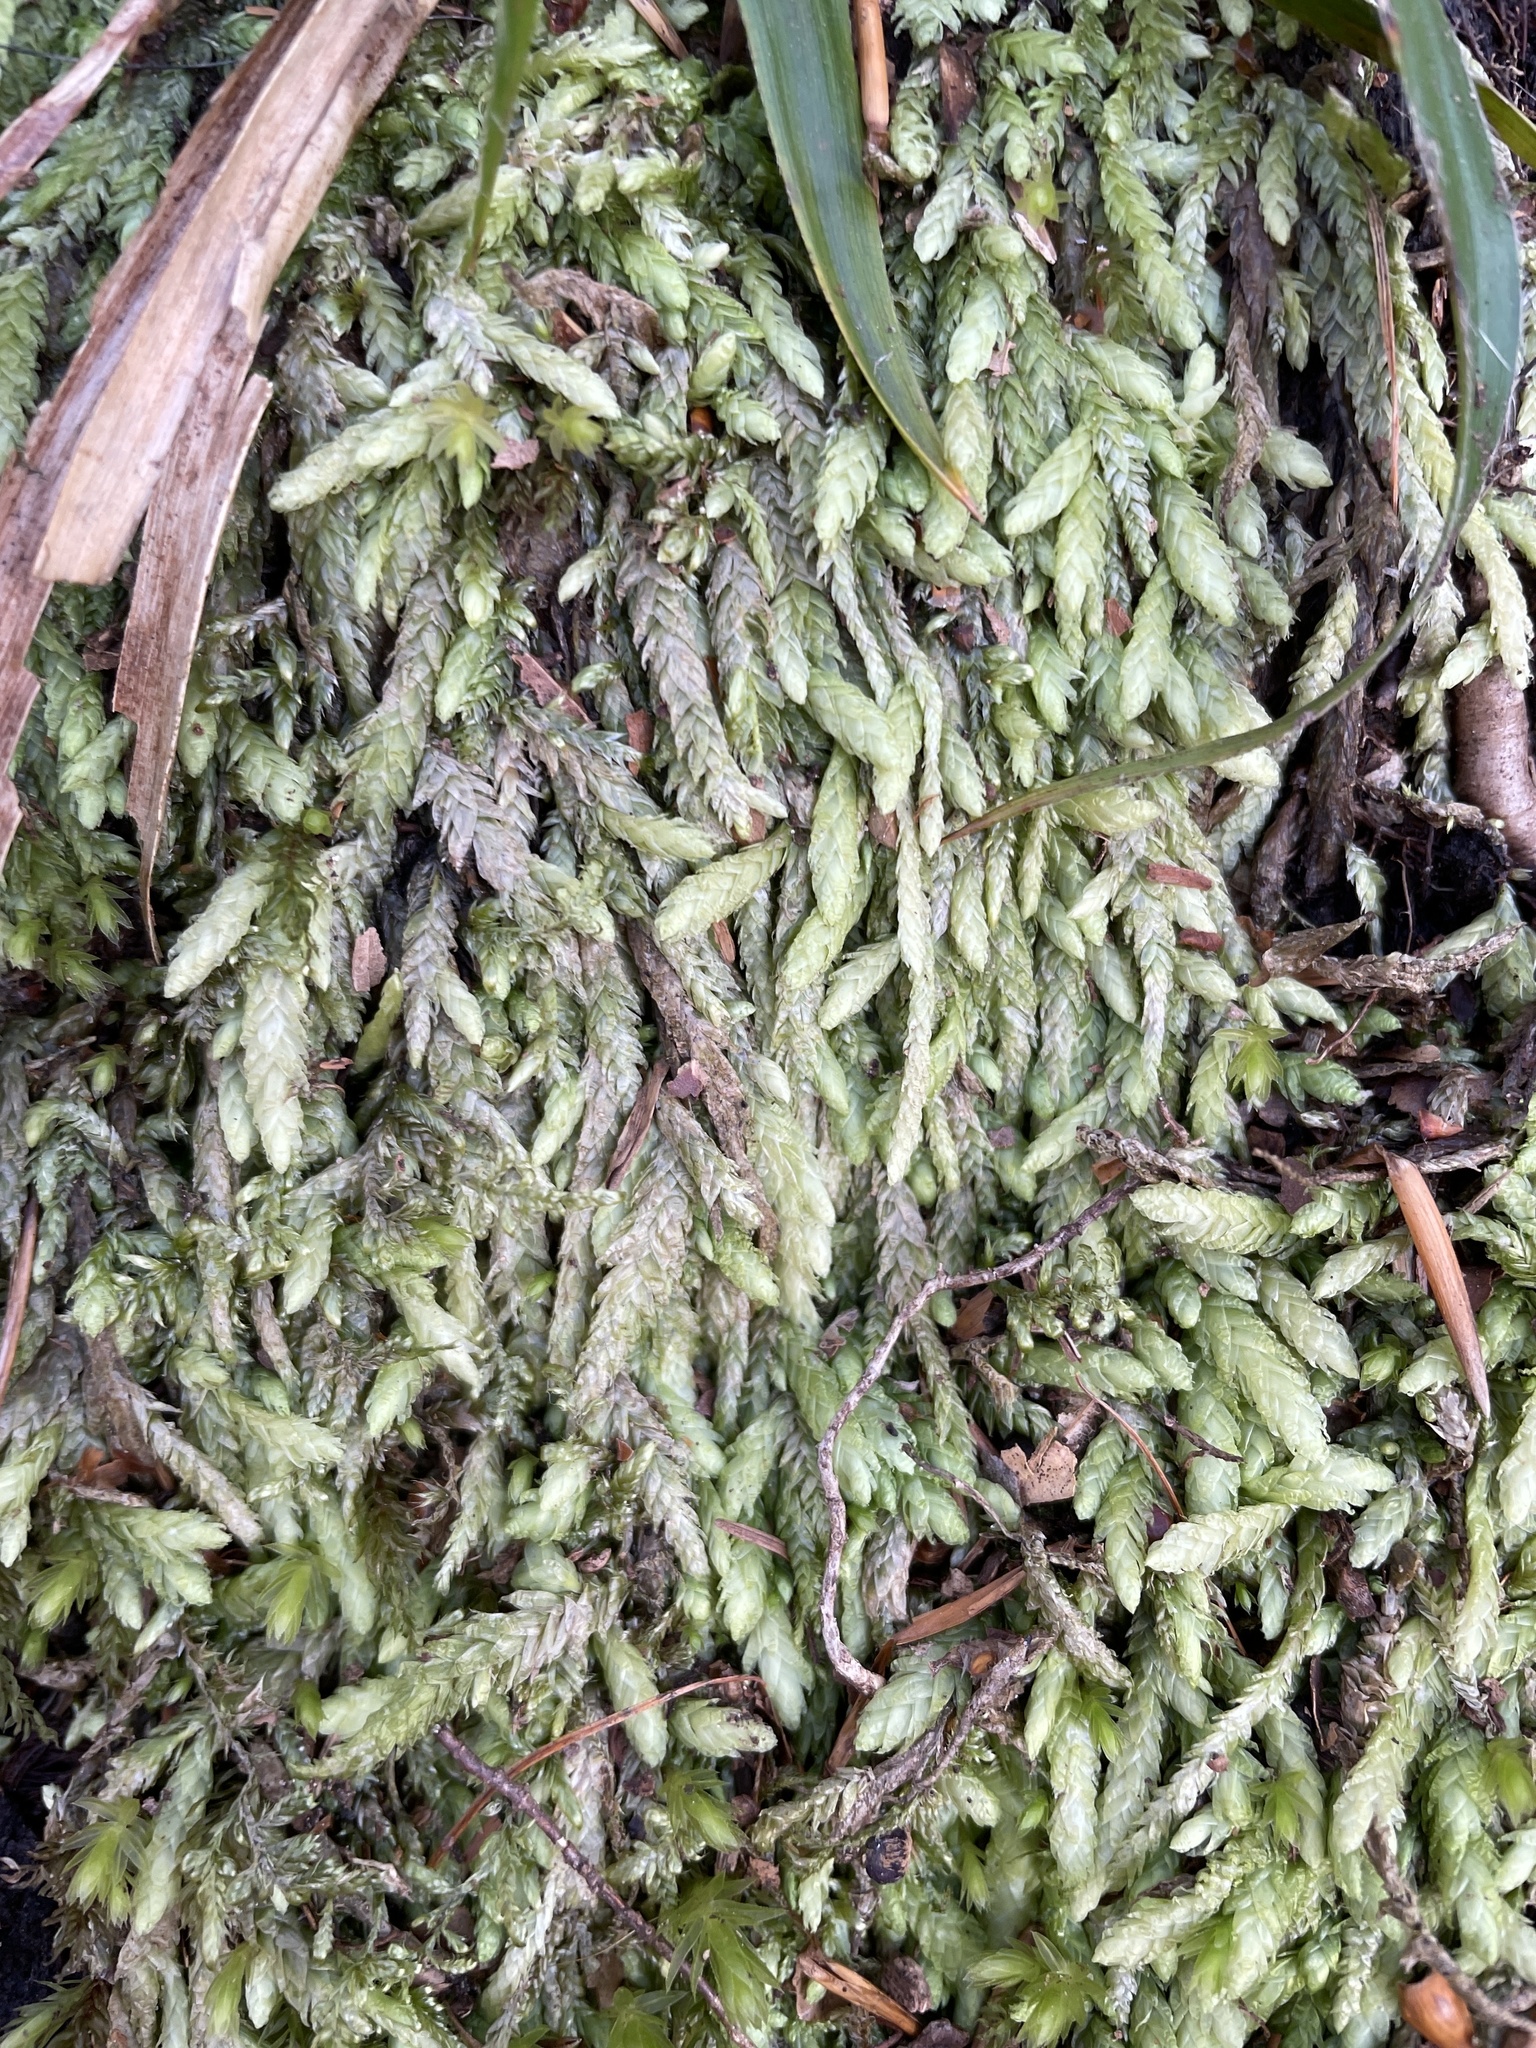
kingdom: Plantae
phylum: Bryophyta
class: Bryopsida
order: Hypnales
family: Plagiotheciaceae
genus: Plagiothecium
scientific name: Plagiothecium undulatum
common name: Waved silk-moss
